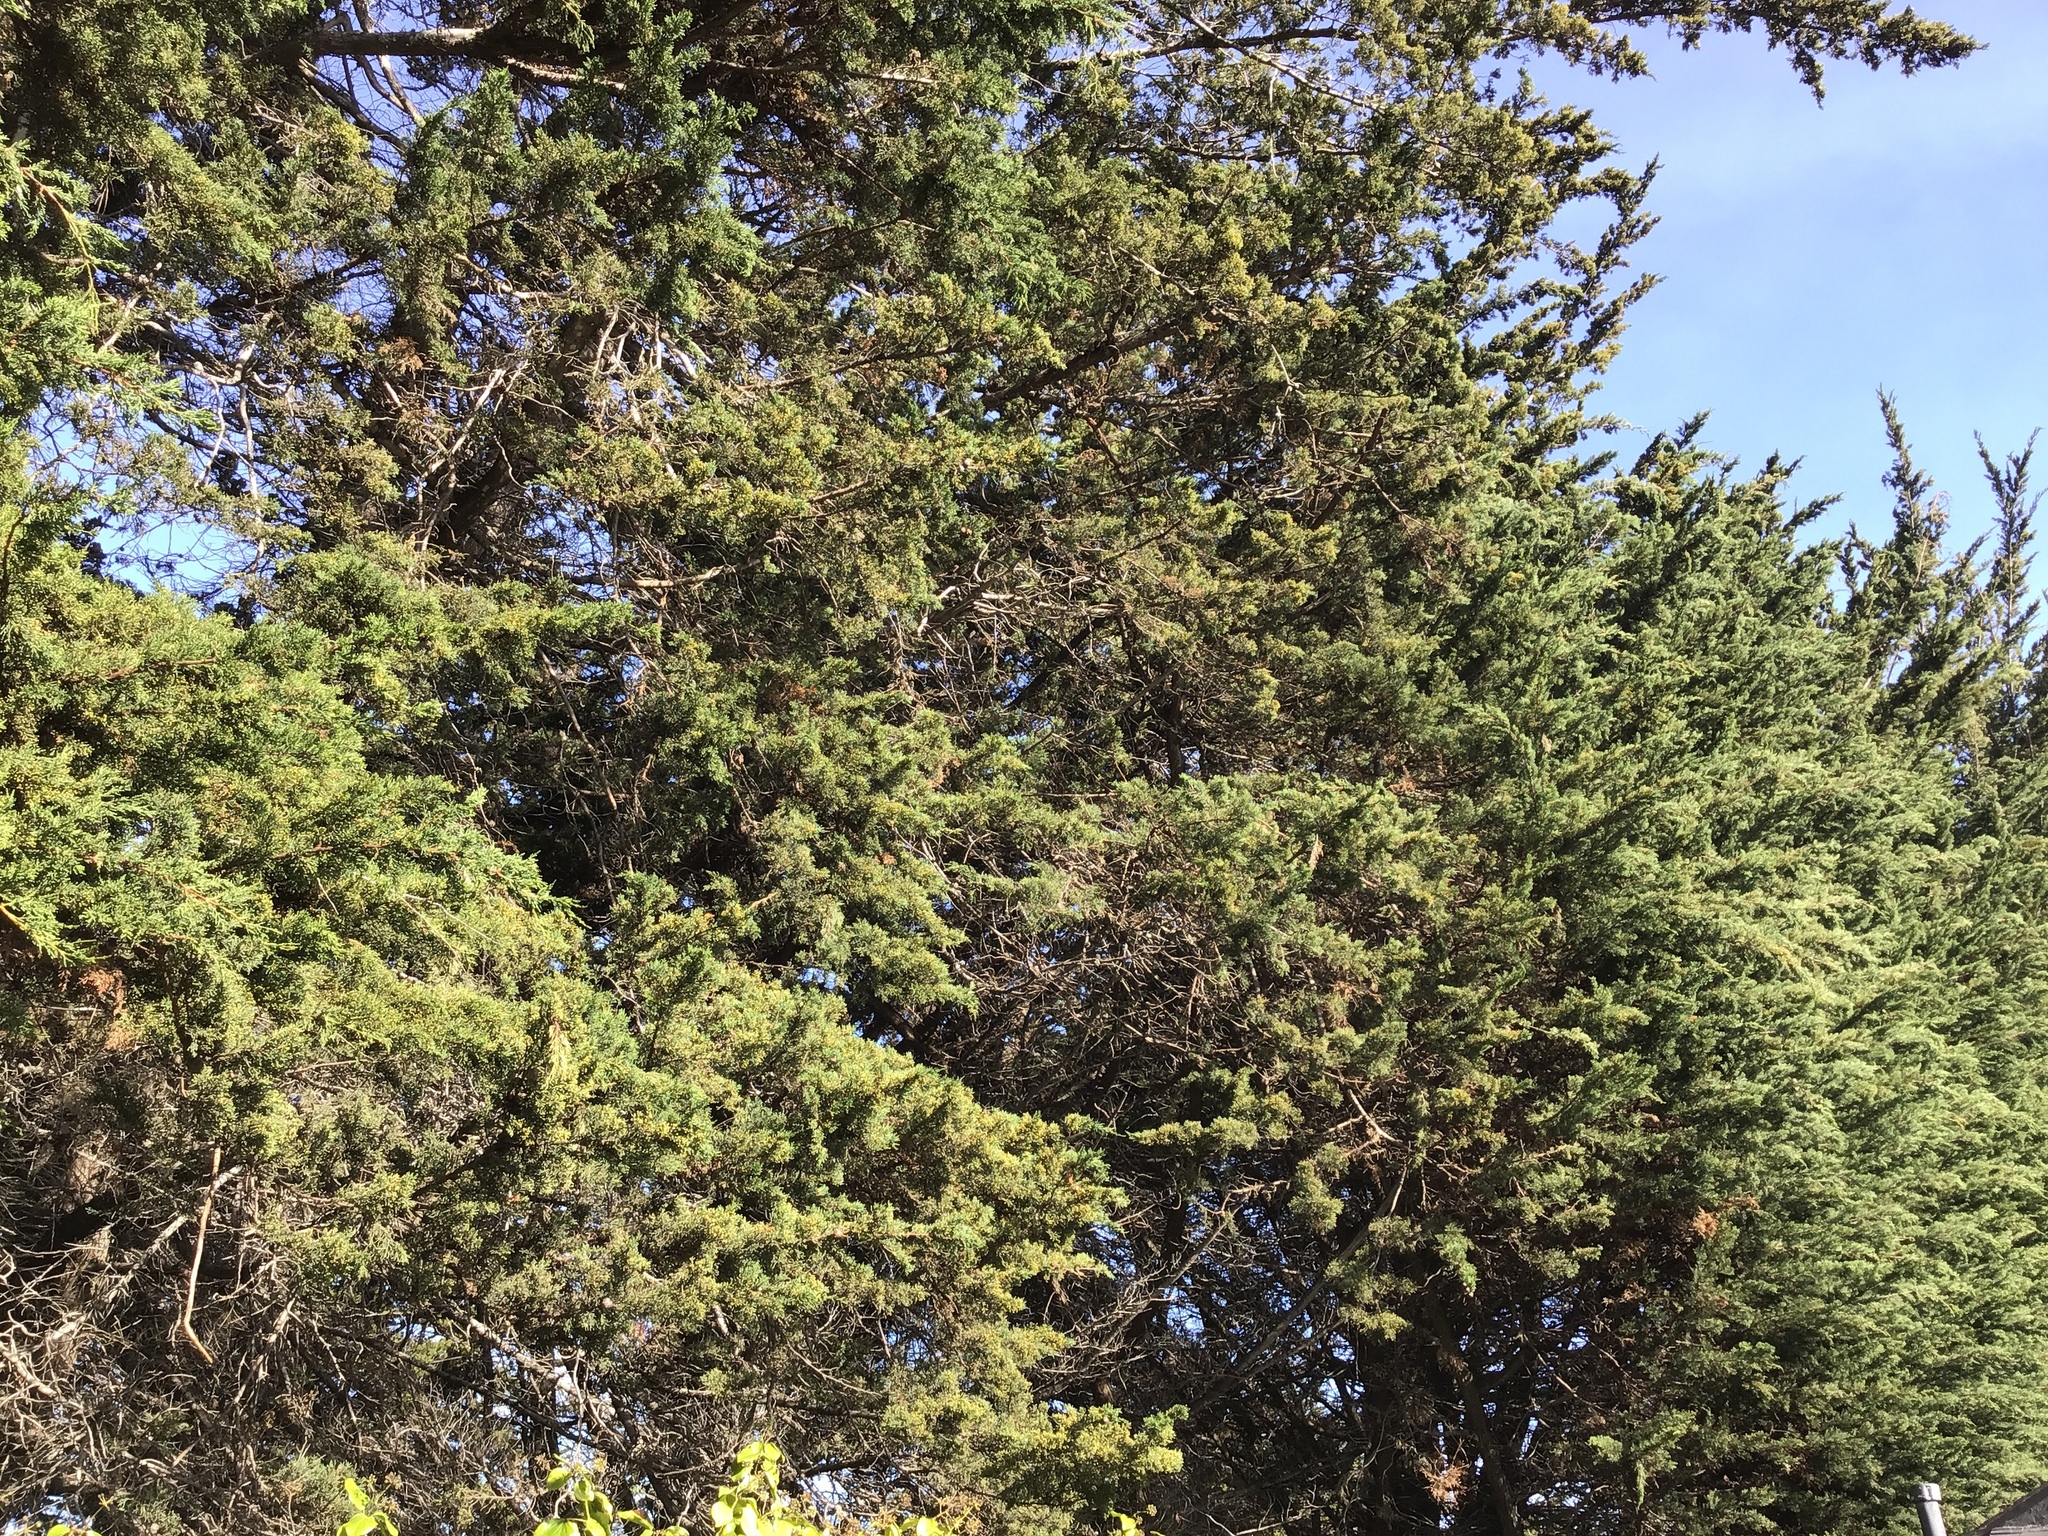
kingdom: Plantae
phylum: Tracheophyta
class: Pinopsida
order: Pinales
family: Cupressaceae
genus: Cupressus
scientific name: Cupressus macrocarpa
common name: Monterey cypress
